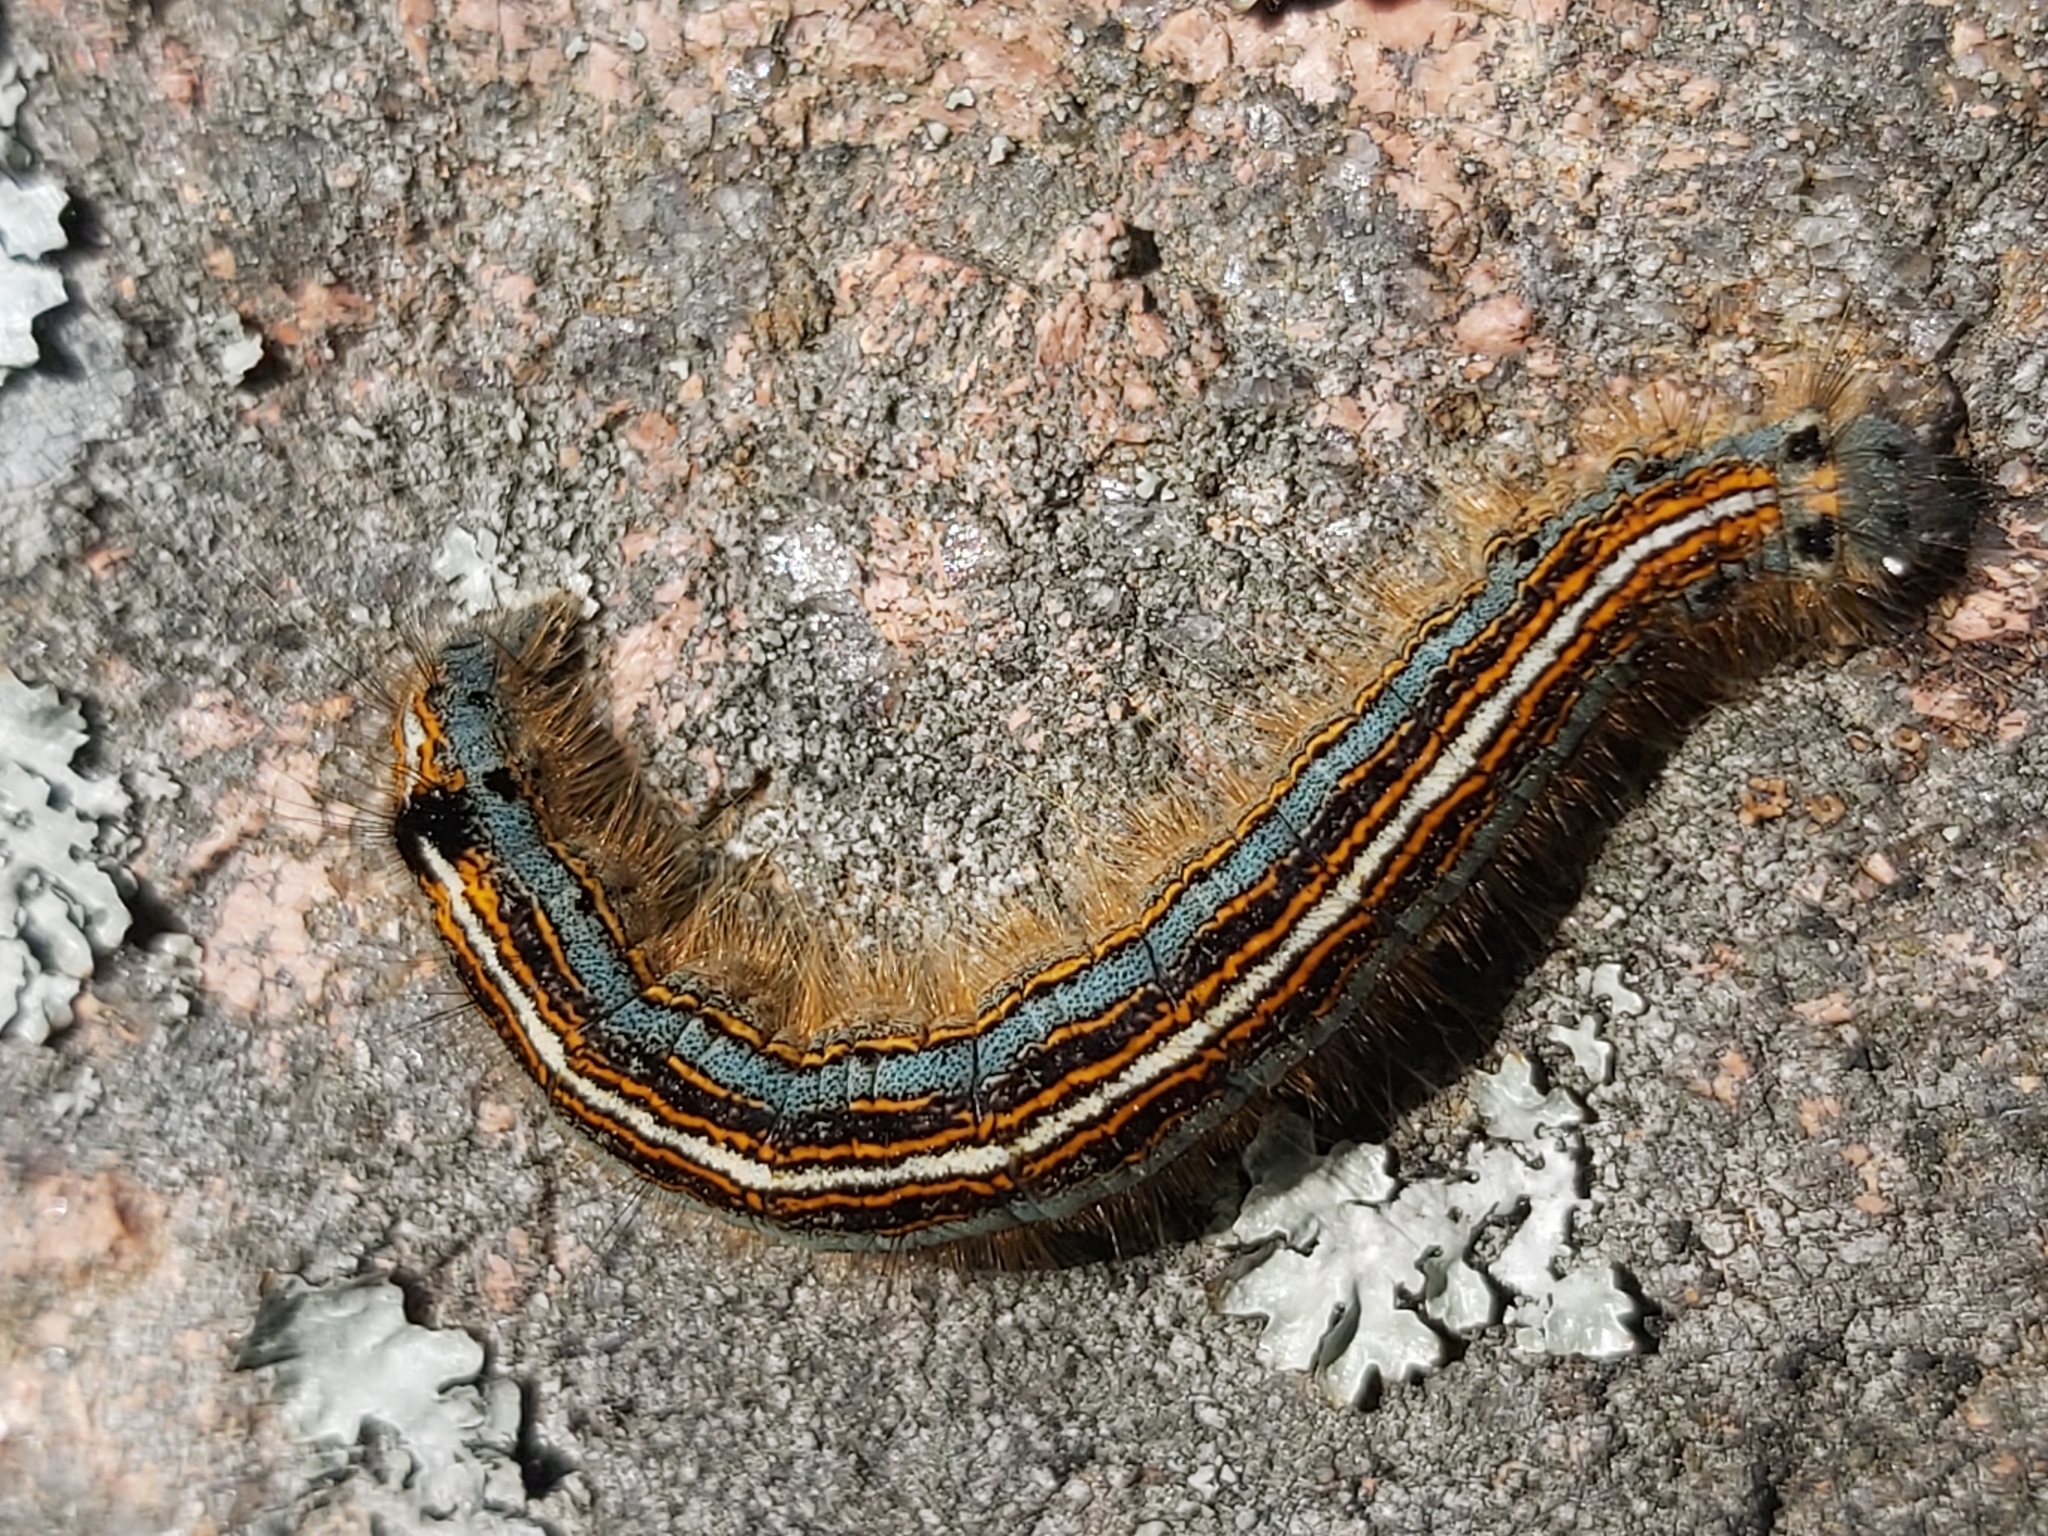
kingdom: Animalia
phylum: Arthropoda
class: Insecta
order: Lepidoptera
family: Lasiocampidae
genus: Malacosoma
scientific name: Malacosoma neustria
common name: The lackey
